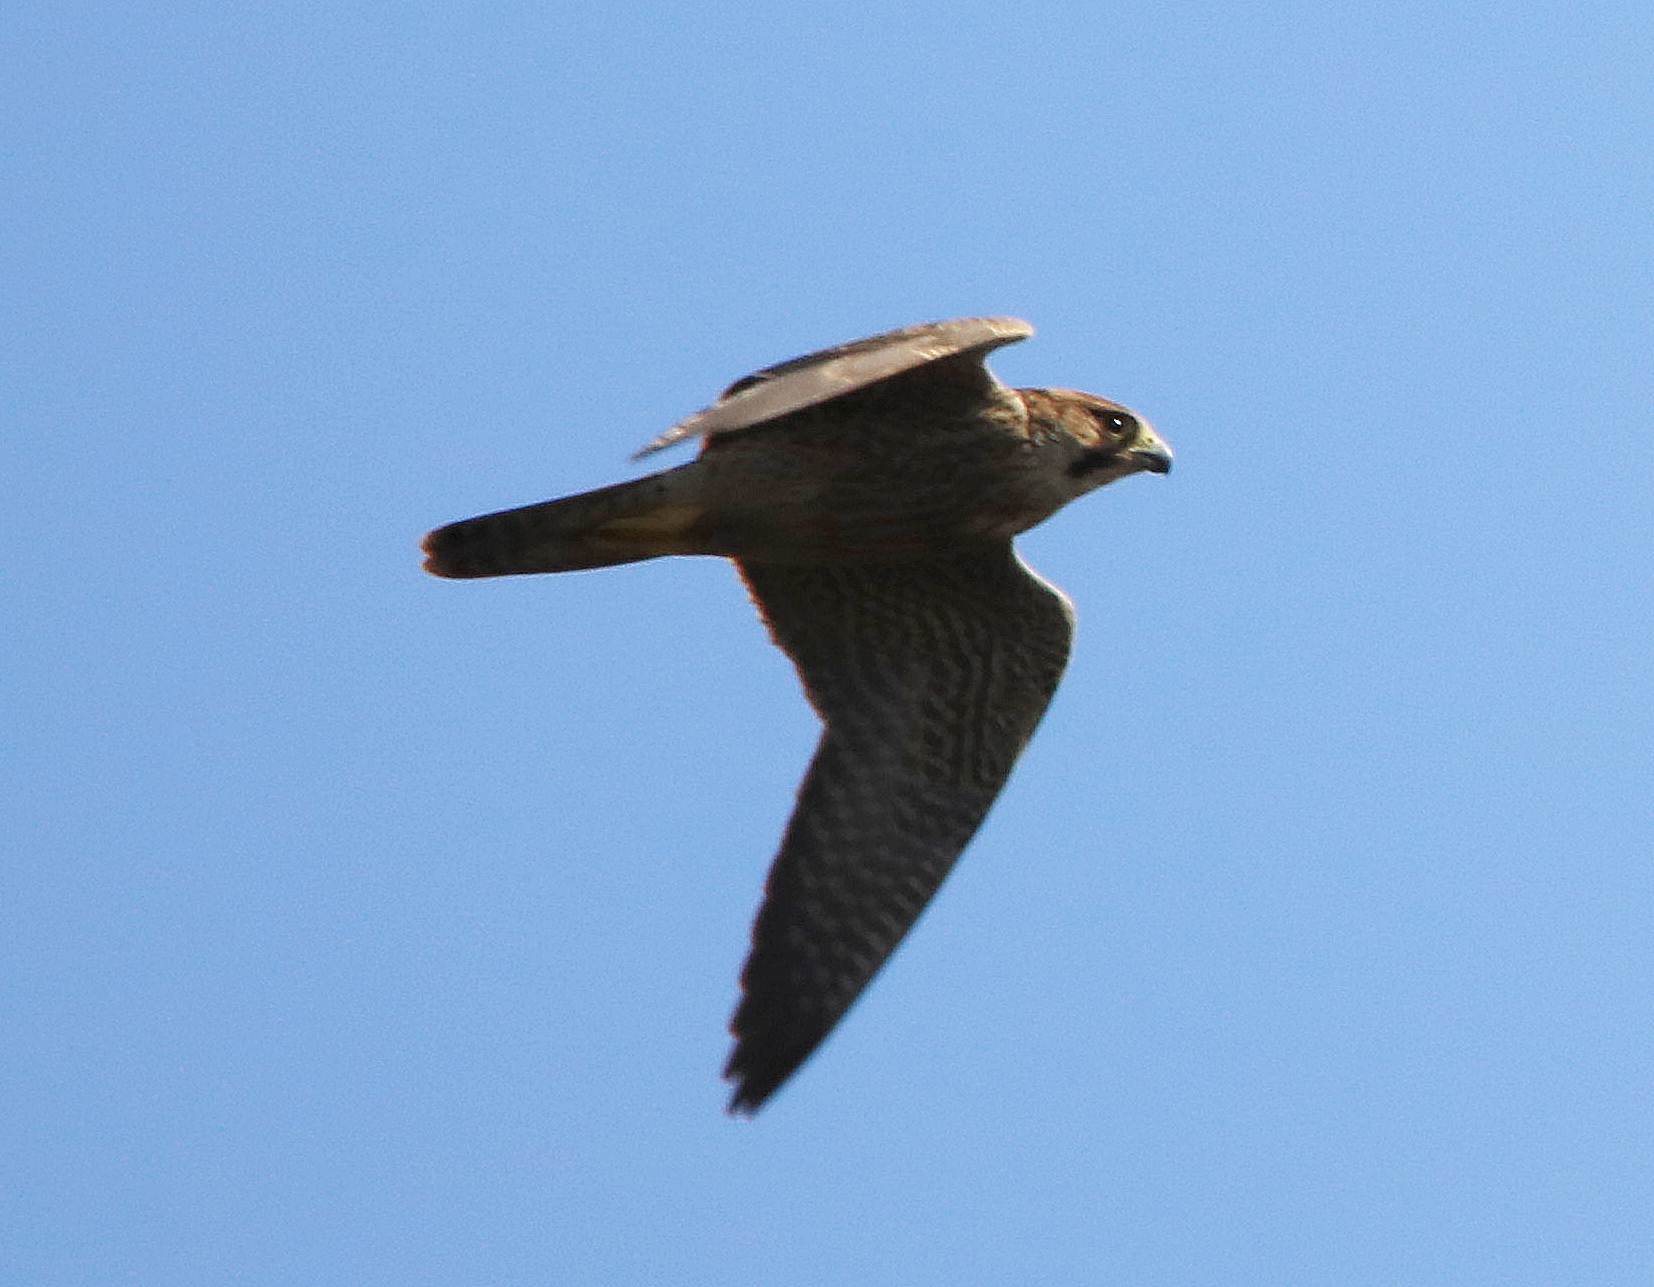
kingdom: Animalia
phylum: Chordata
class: Aves
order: Falconiformes
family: Falconidae
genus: Falco
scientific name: Falco peregrinus
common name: Peregrine falcon
